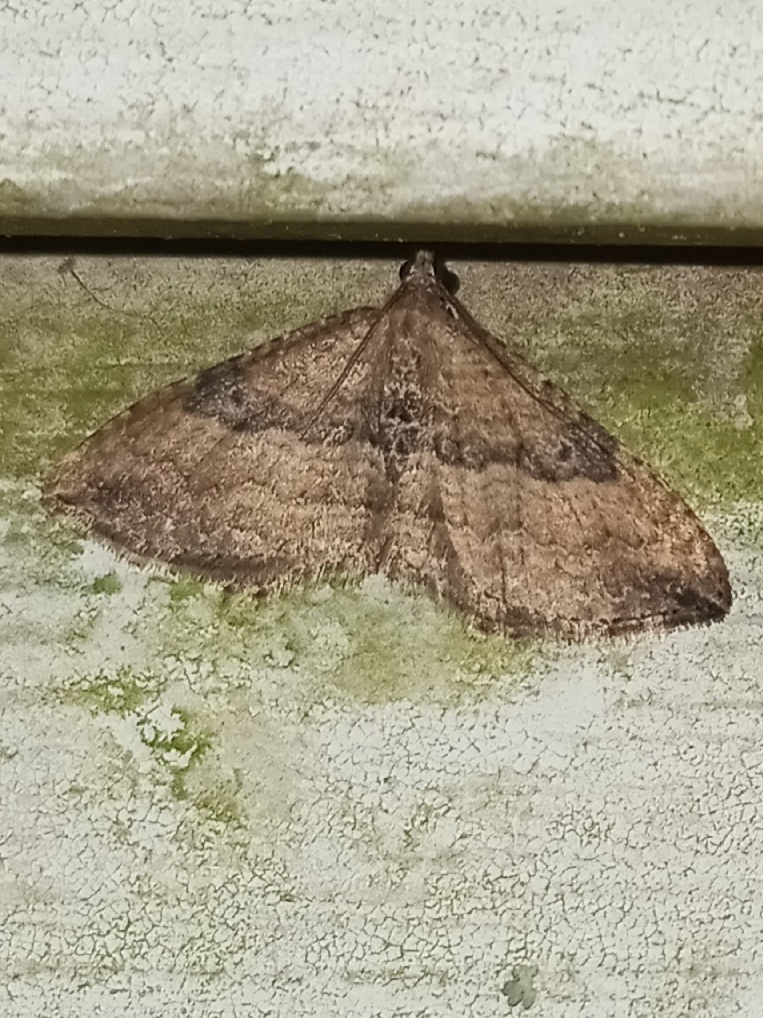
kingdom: Animalia
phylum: Arthropoda
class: Insecta
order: Lepidoptera
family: Geometridae
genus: Orthonama
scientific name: Orthonama obstipata
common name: The gem
